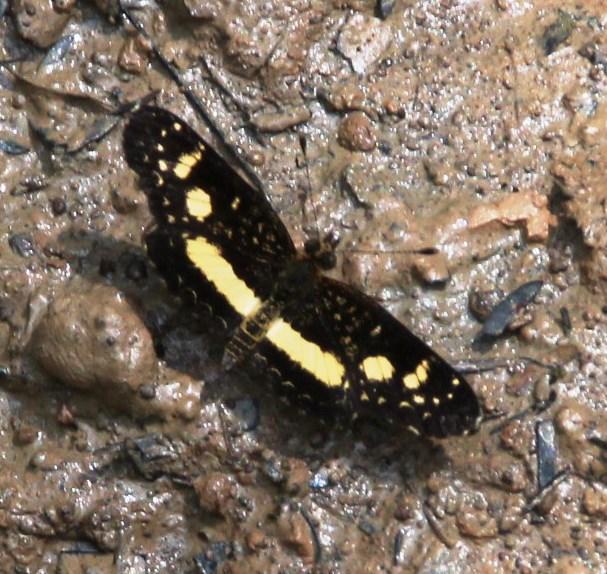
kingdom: Animalia
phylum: Arthropoda
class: Insecta
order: Lepidoptera
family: Nymphalidae
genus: Castilia
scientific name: Castilia angusta
